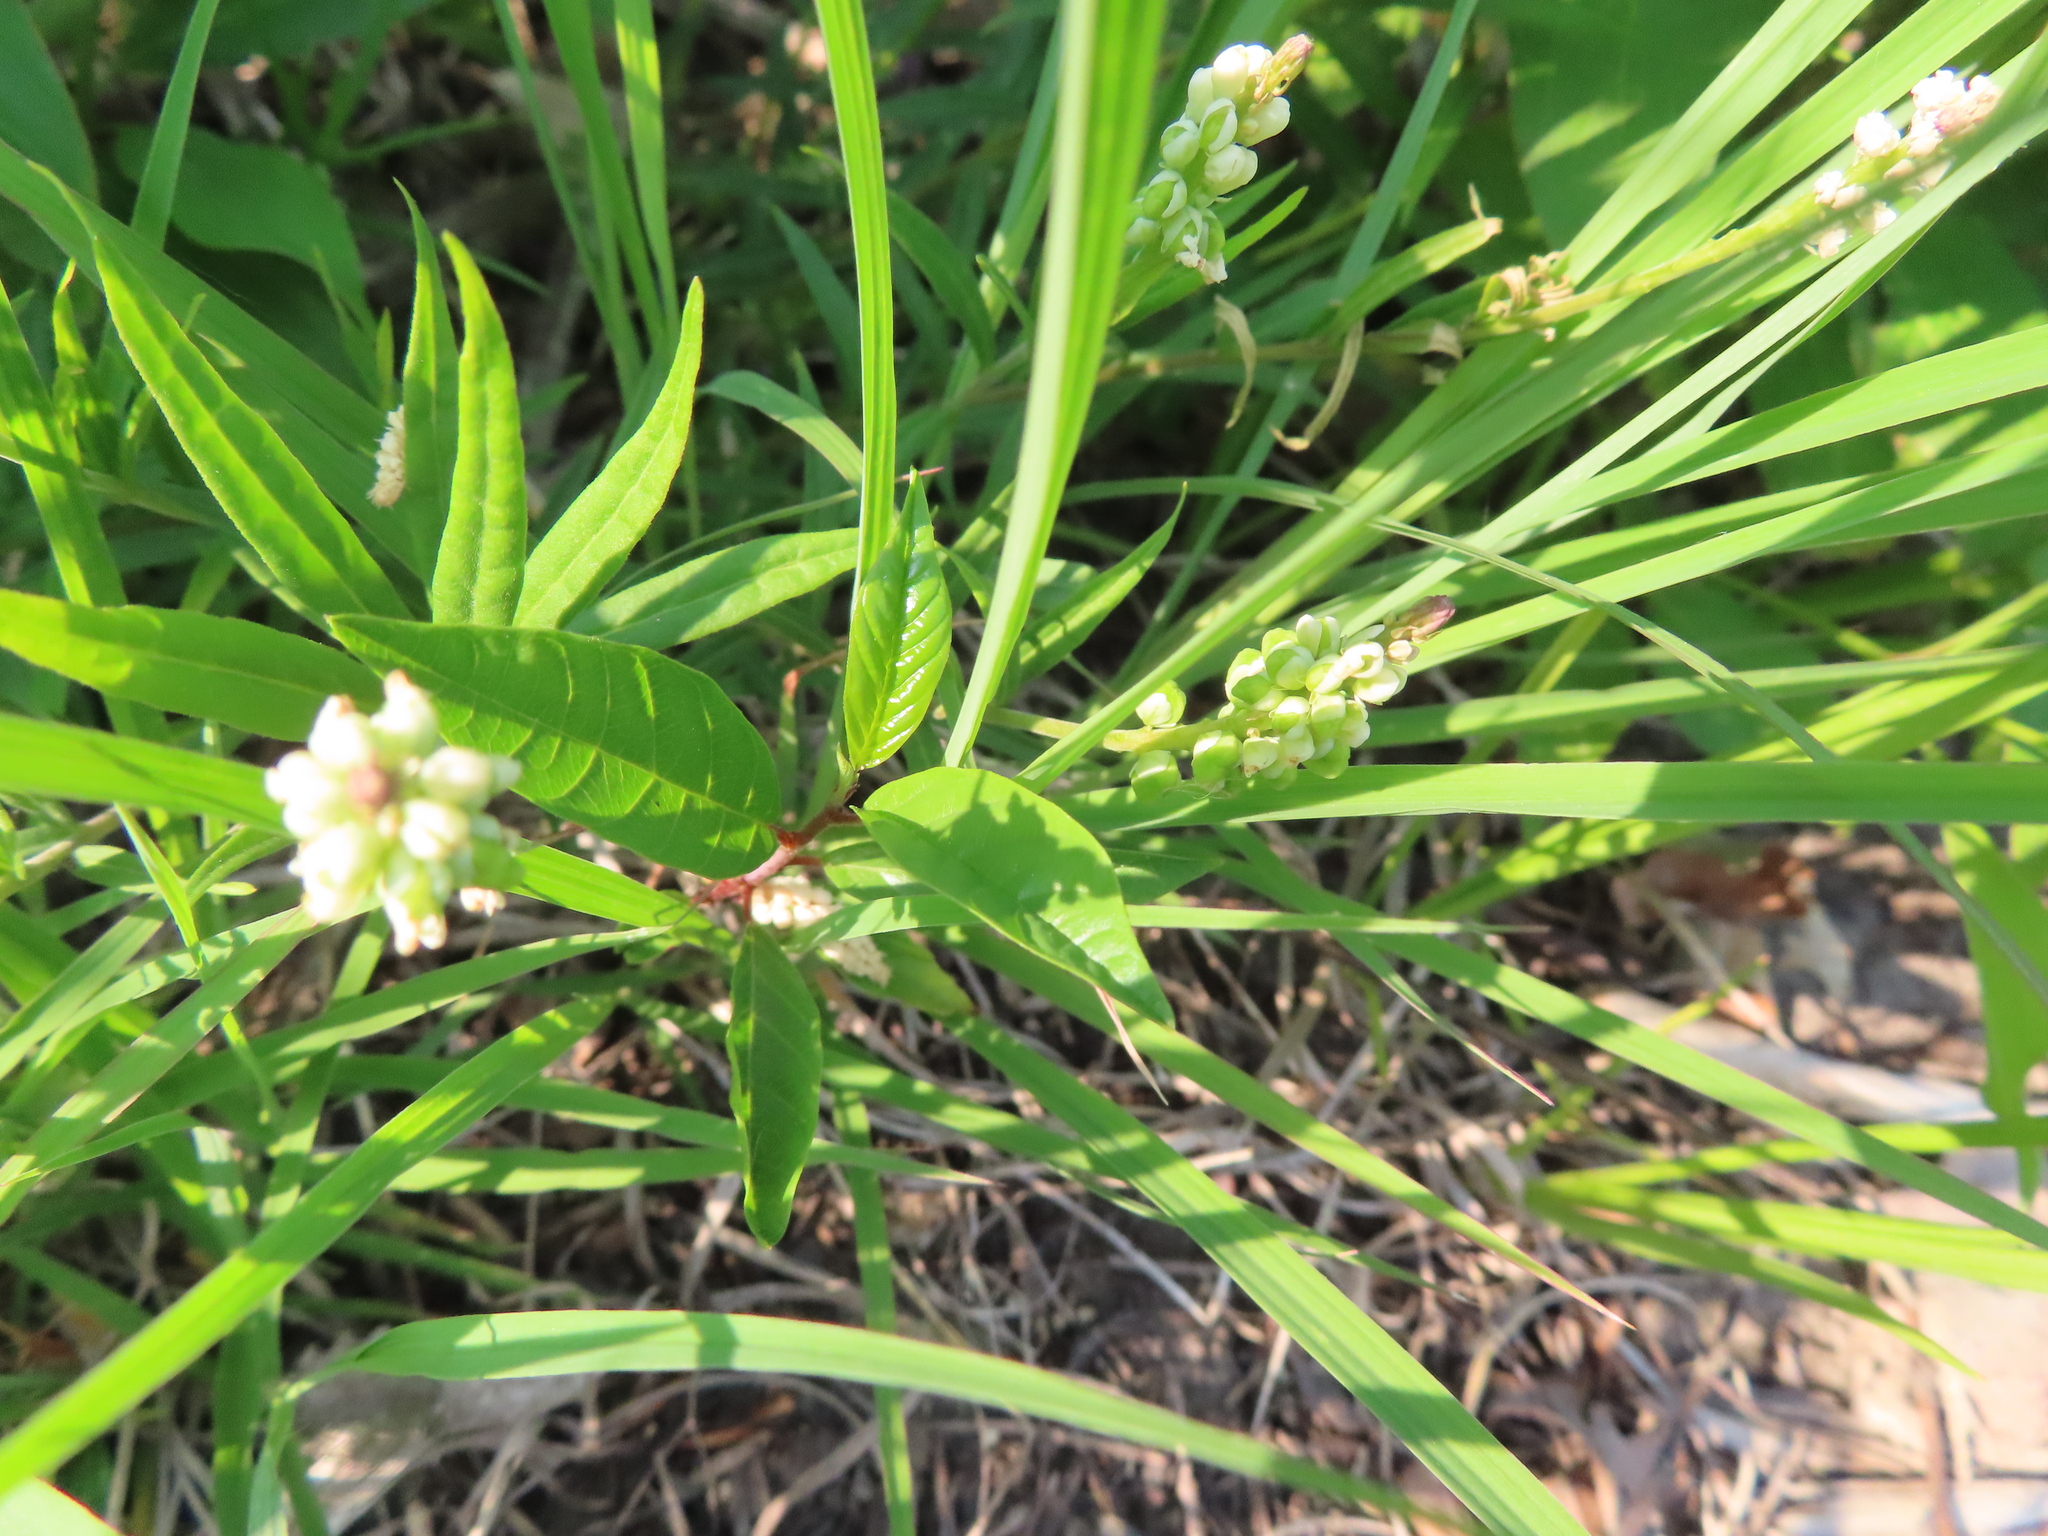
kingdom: Plantae
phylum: Tracheophyta
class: Magnoliopsida
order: Fabales
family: Polygalaceae
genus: Polygala
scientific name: Polygala senega
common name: Seneca snakeroot
